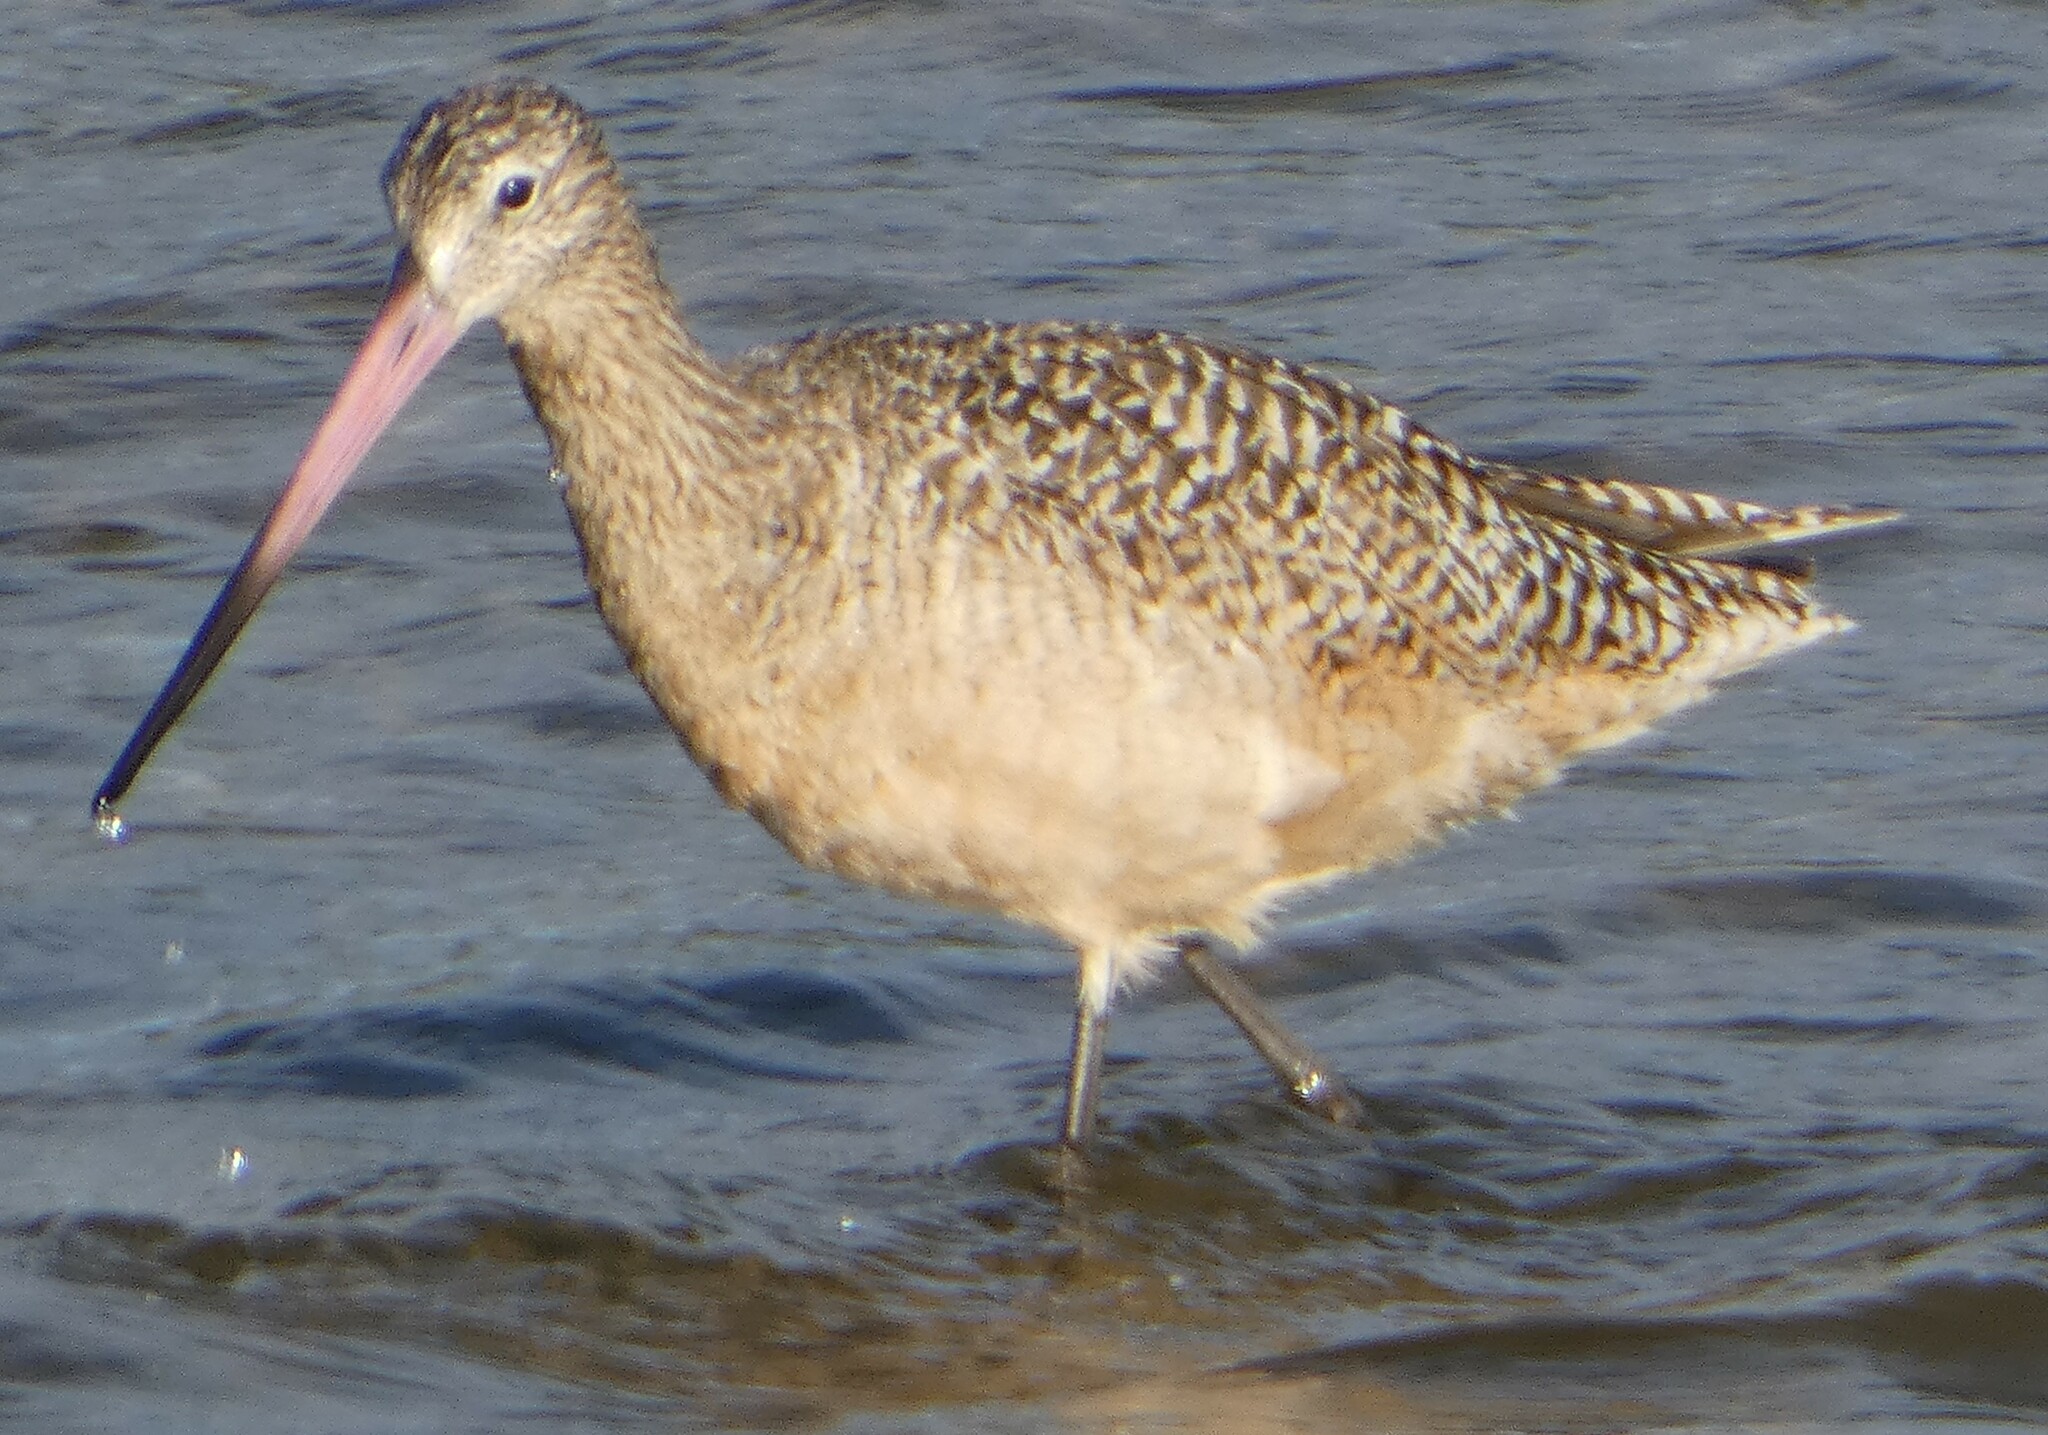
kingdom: Animalia
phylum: Chordata
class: Aves
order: Charadriiformes
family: Scolopacidae
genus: Limosa
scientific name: Limosa fedoa
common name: Marbled godwit
